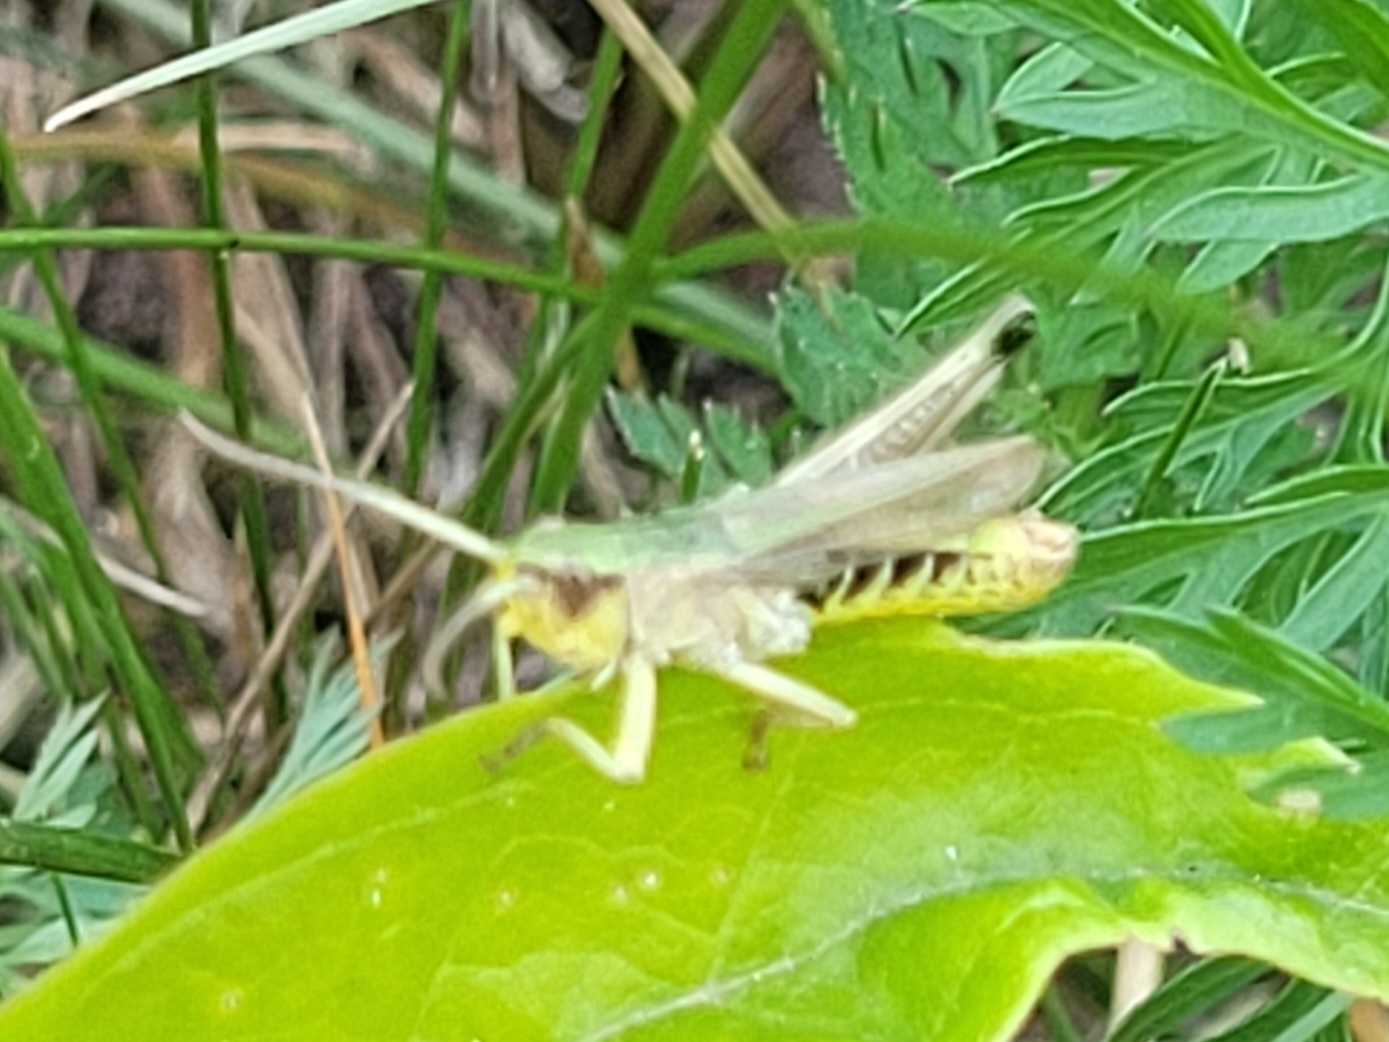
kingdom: Animalia
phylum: Arthropoda
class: Insecta
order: Orthoptera
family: Acrididae
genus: Pseudochorthippus
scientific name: Pseudochorthippus parallelus
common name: Meadow grasshopper
